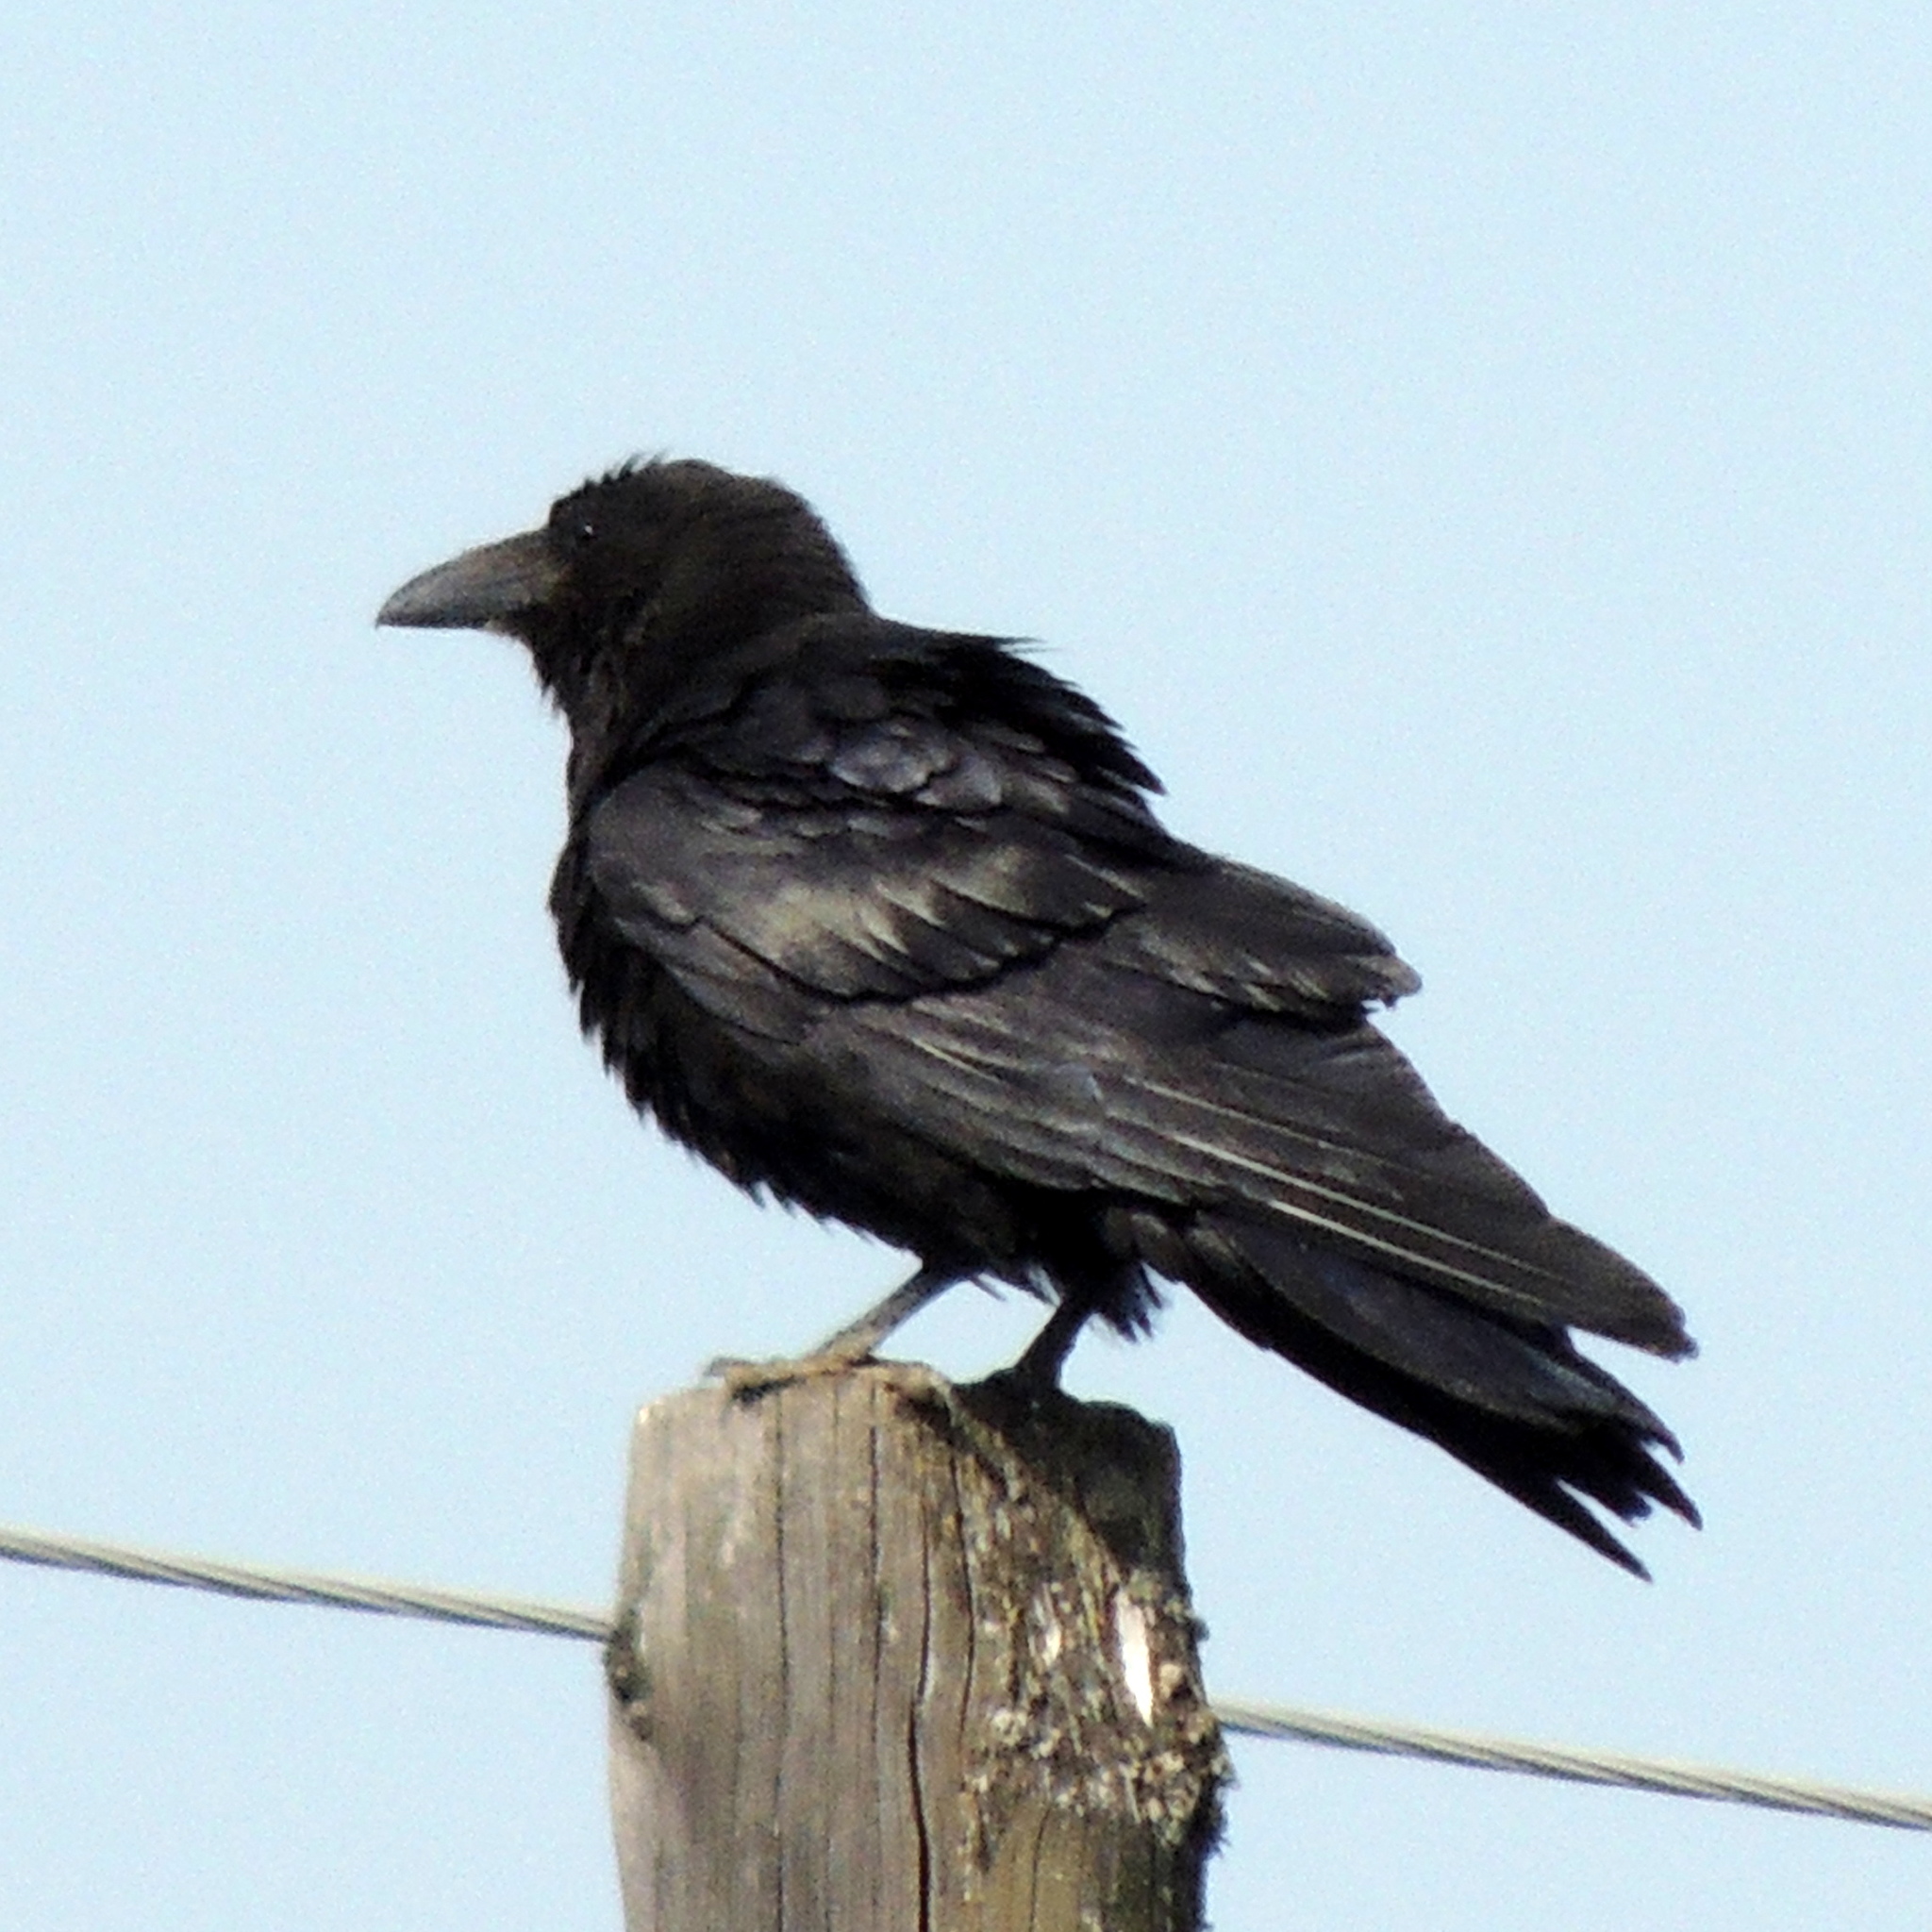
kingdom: Animalia
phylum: Chordata
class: Aves
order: Passeriformes
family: Corvidae
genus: Corvus
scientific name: Corvus corax
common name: Common raven
